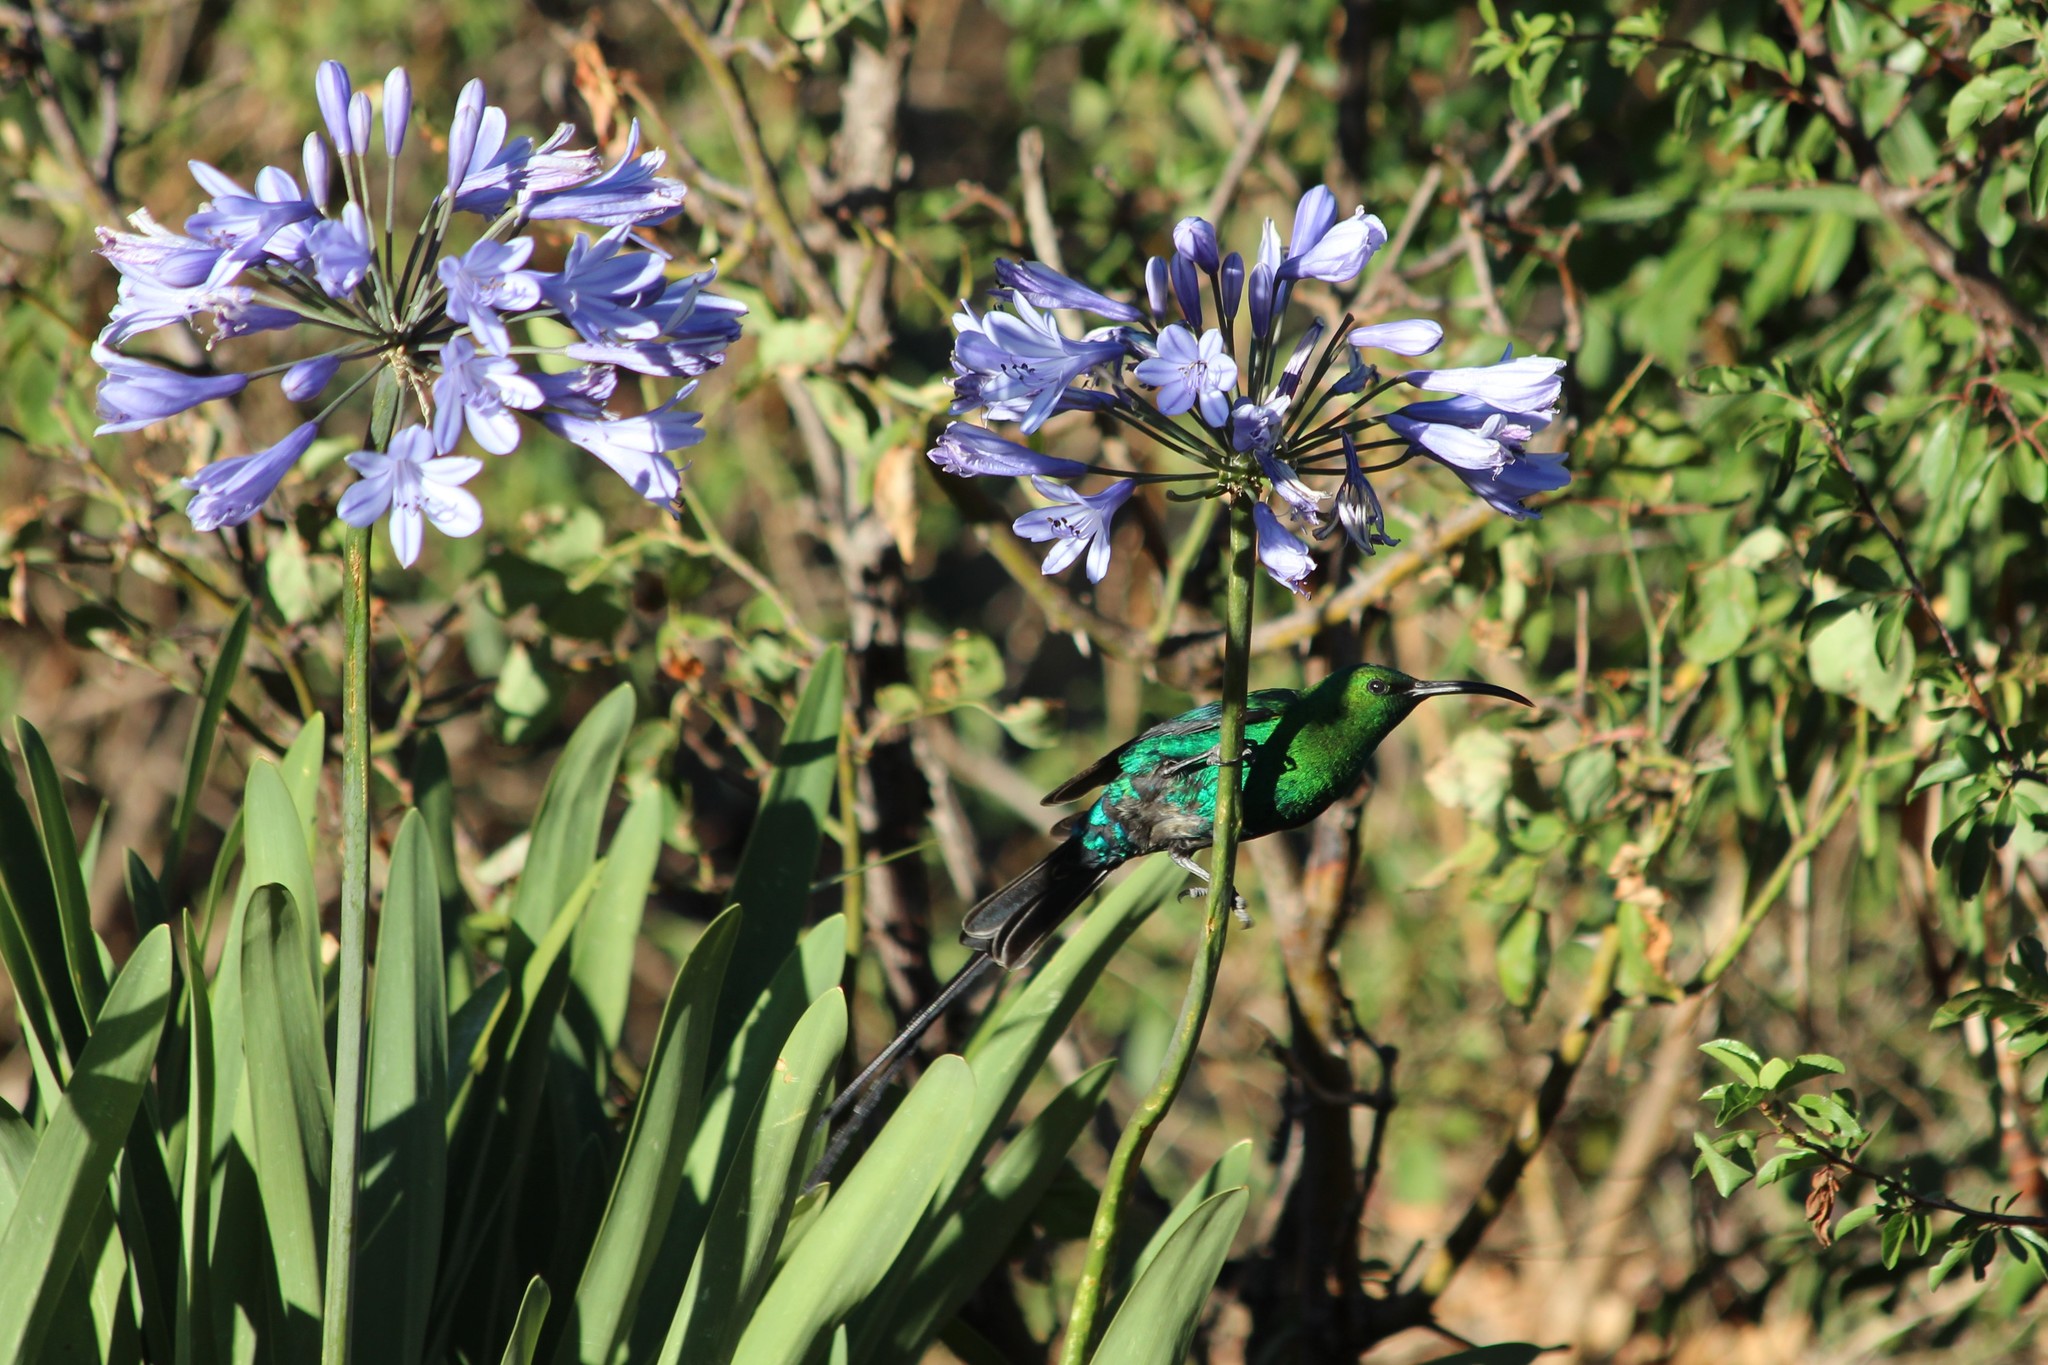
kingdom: Animalia
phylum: Chordata
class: Aves
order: Passeriformes
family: Nectariniidae
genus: Nectarinia
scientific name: Nectarinia famosa
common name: Malachite sunbird
